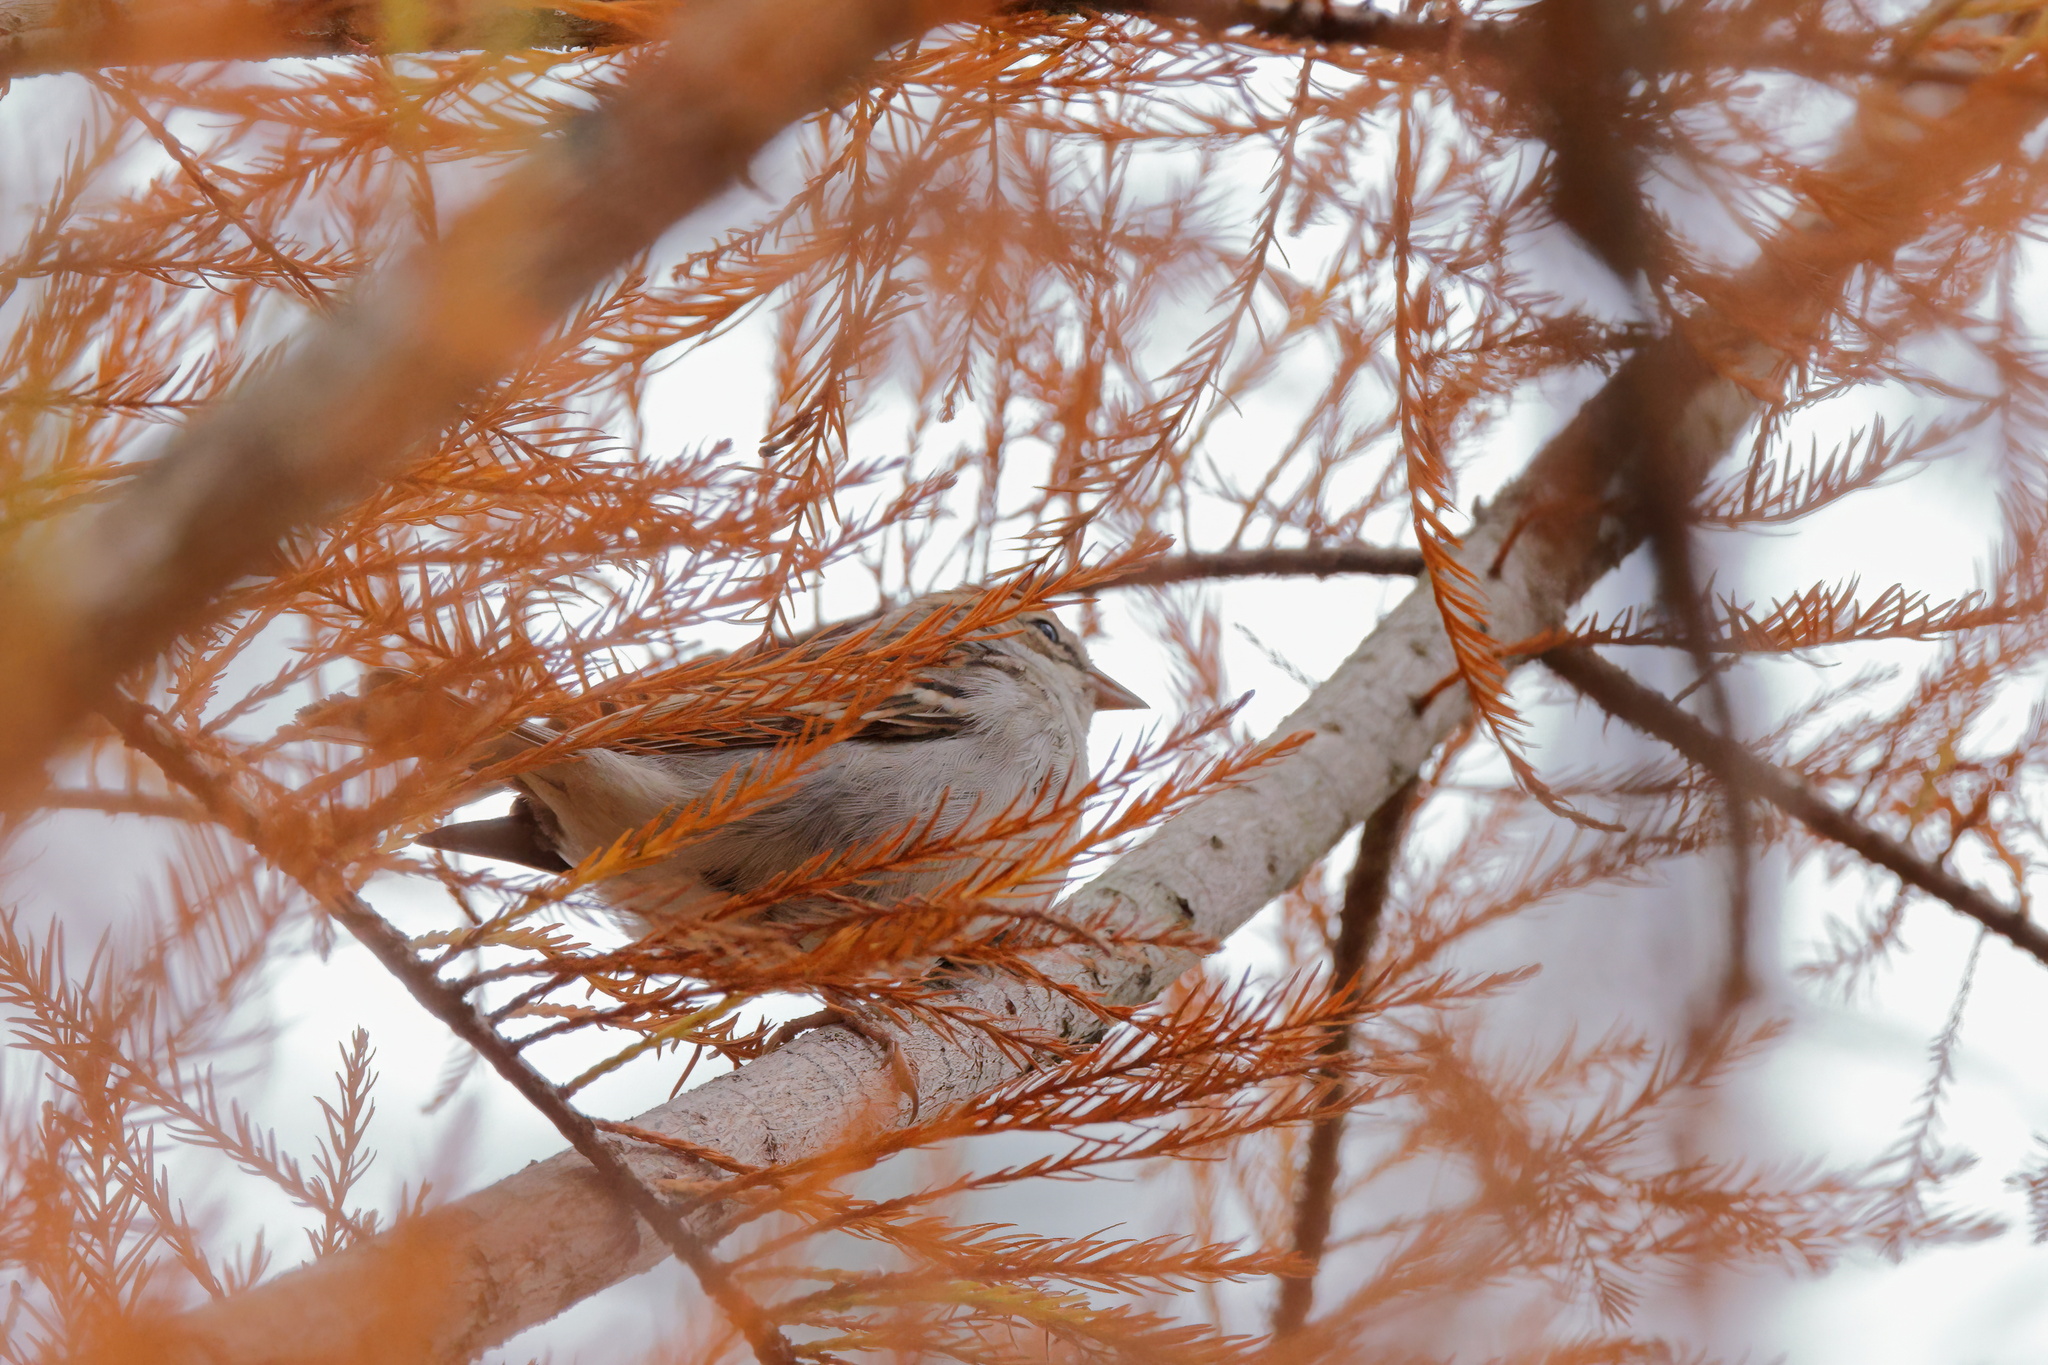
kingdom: Animalia
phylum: Chordata
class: Aves
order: Passeriformes
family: Passerellidae
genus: Spizella
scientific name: Spizella passerina
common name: Chipping sparrow
